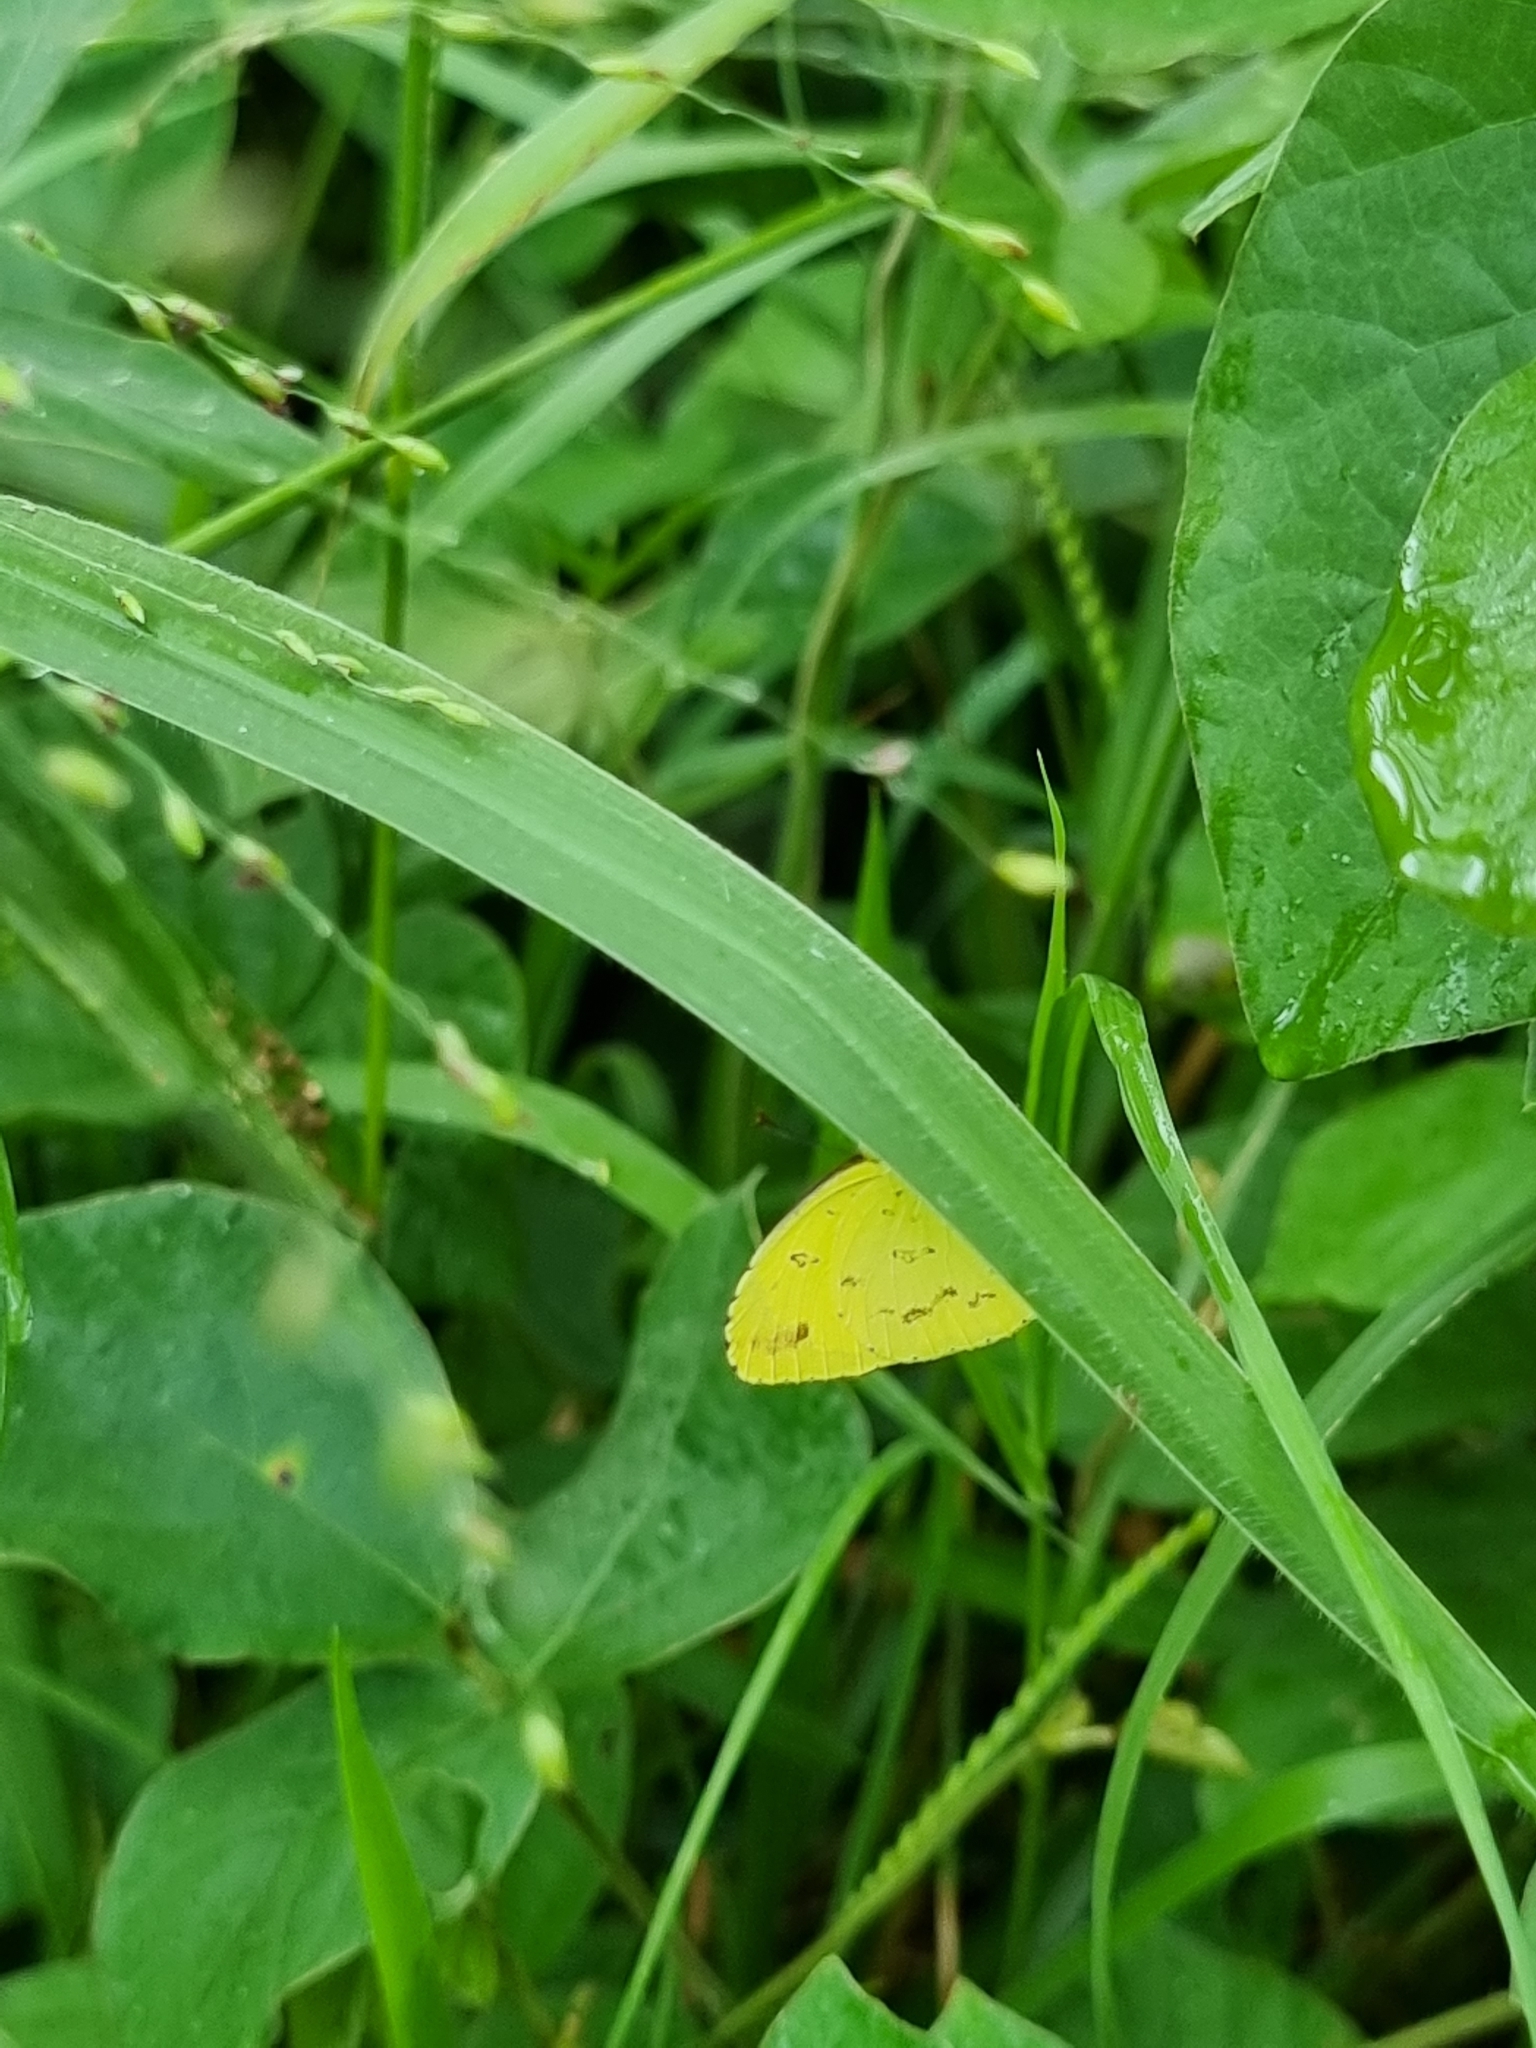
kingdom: Animalia
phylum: Arthropoda
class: Insecta
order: Lepidoptera
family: Pieridae
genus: Eurema
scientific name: Eurema hecabe
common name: Pale grass yellow
